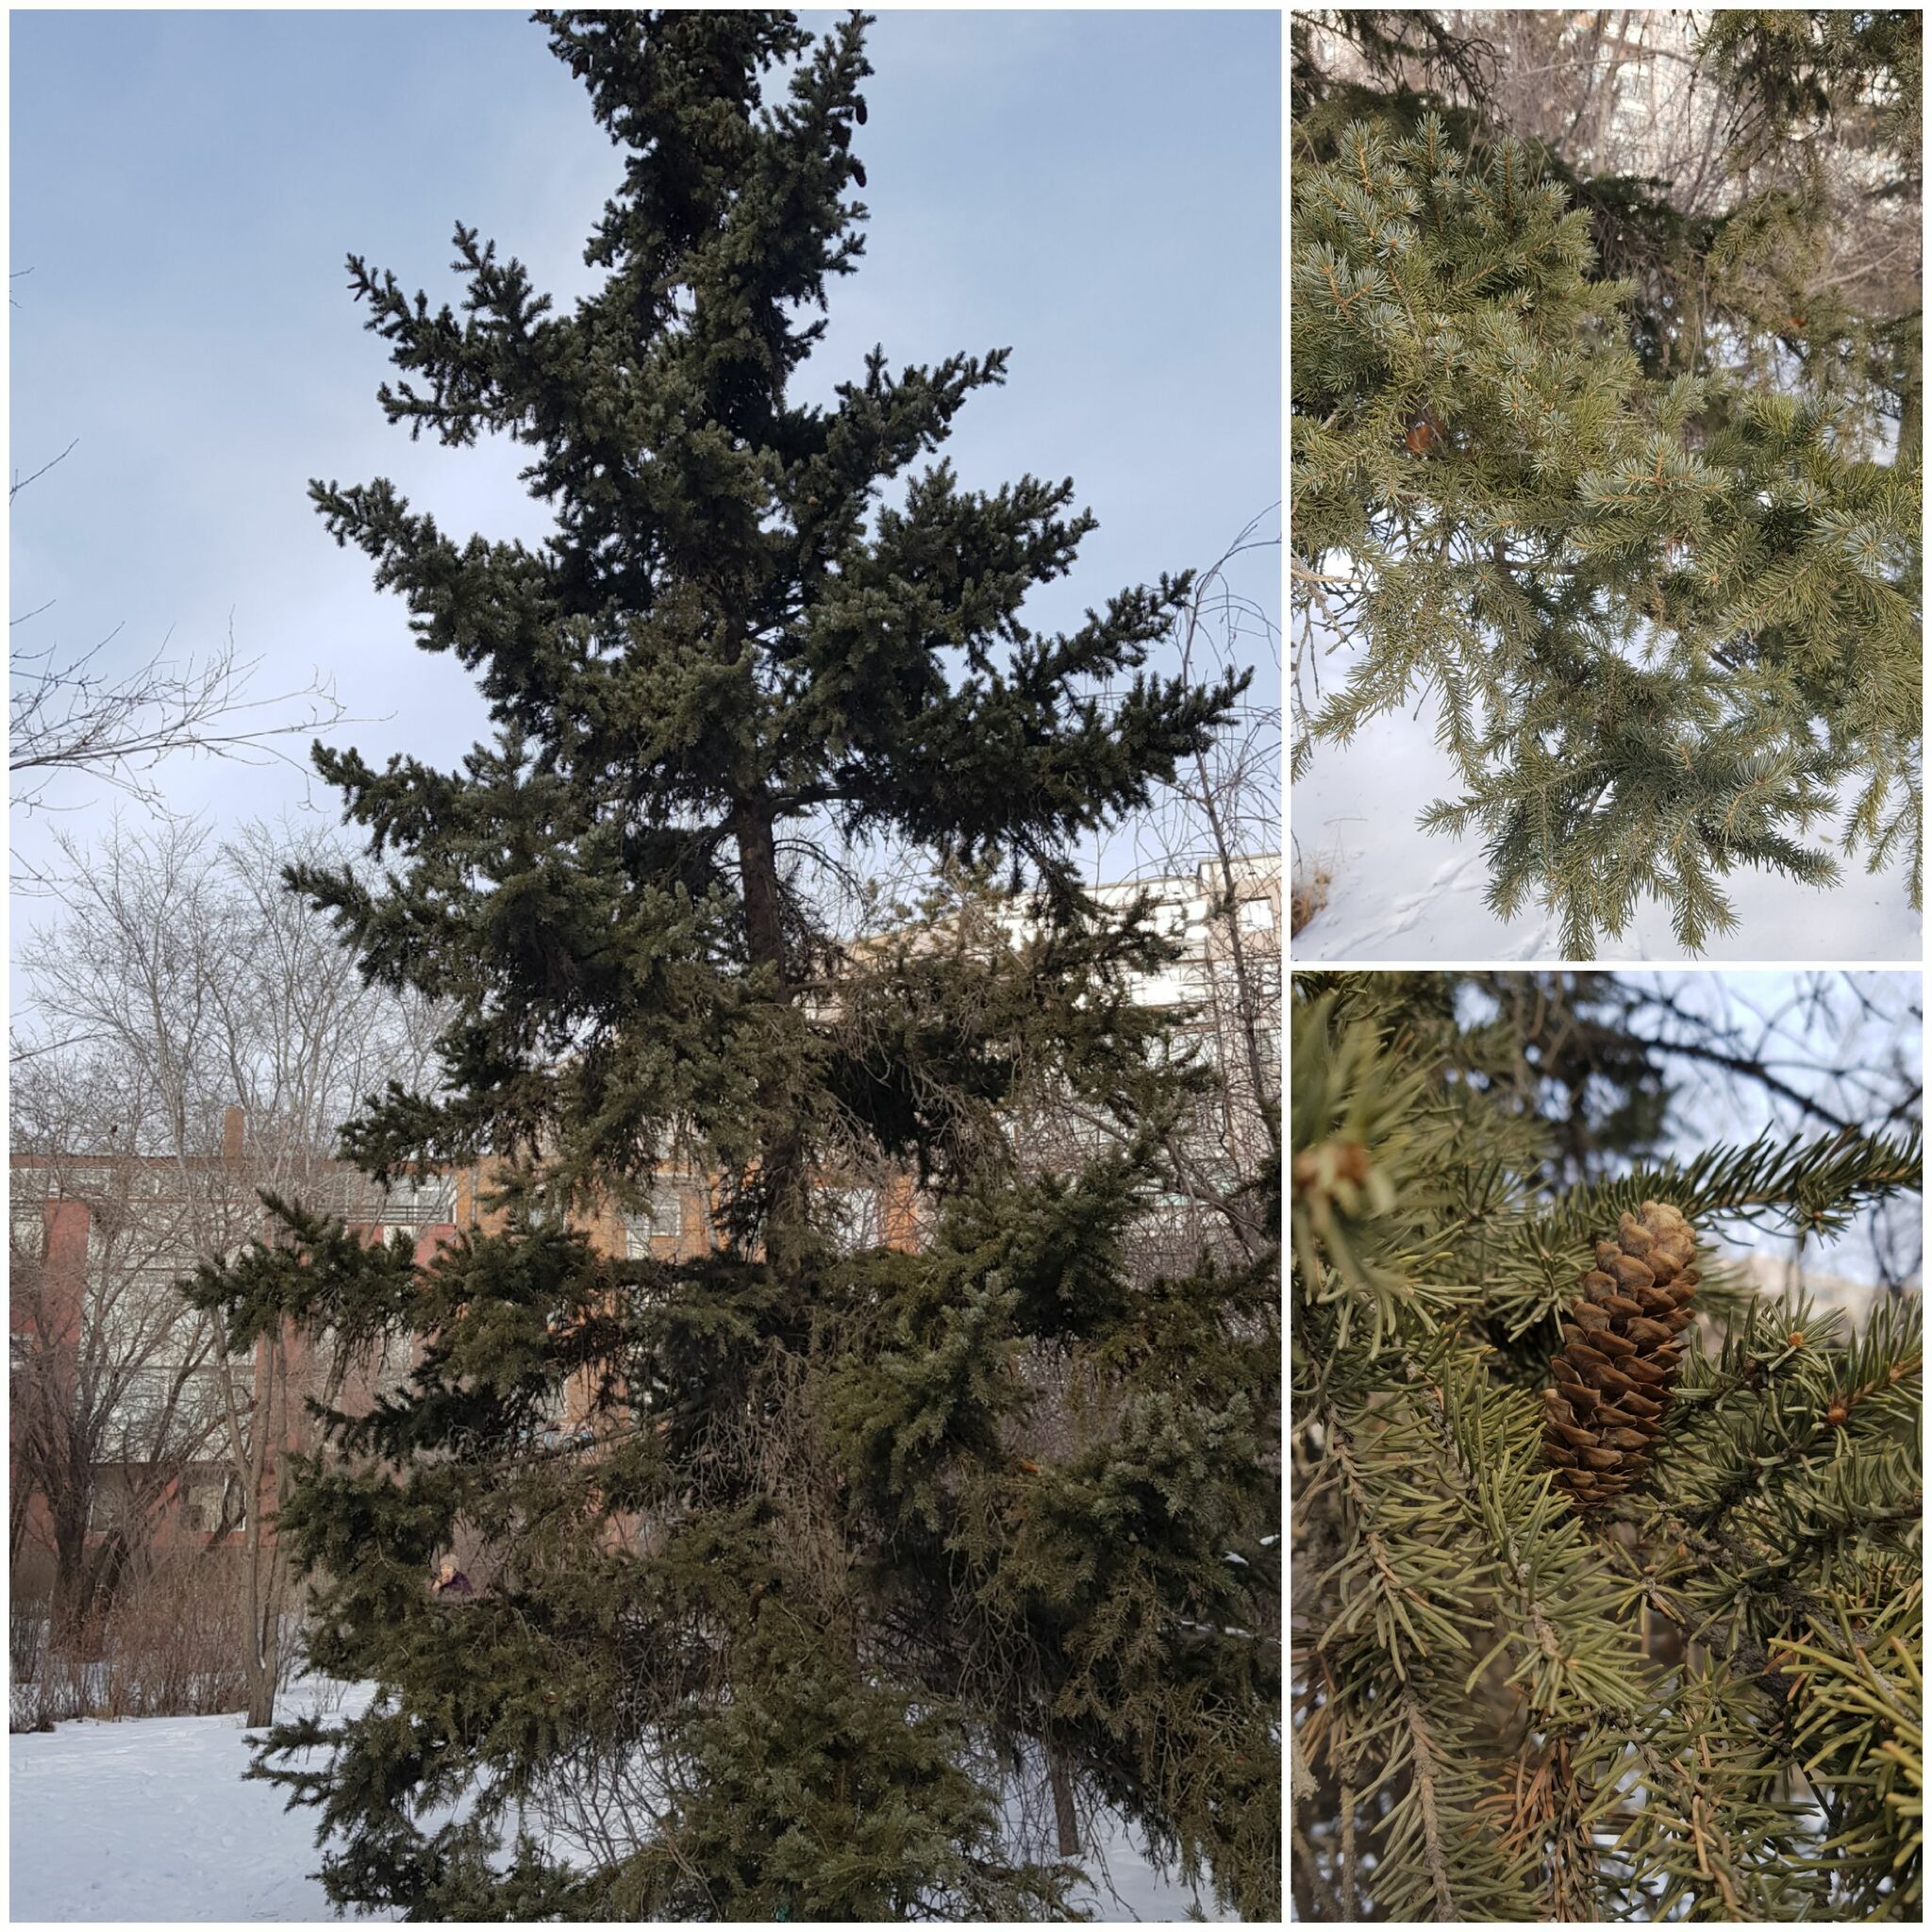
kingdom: Plantae
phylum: Tracheophyta
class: Pinopsida
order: Pinales
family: Pinaceae
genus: Picea
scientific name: Picea obovata
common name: Siberian spruce
